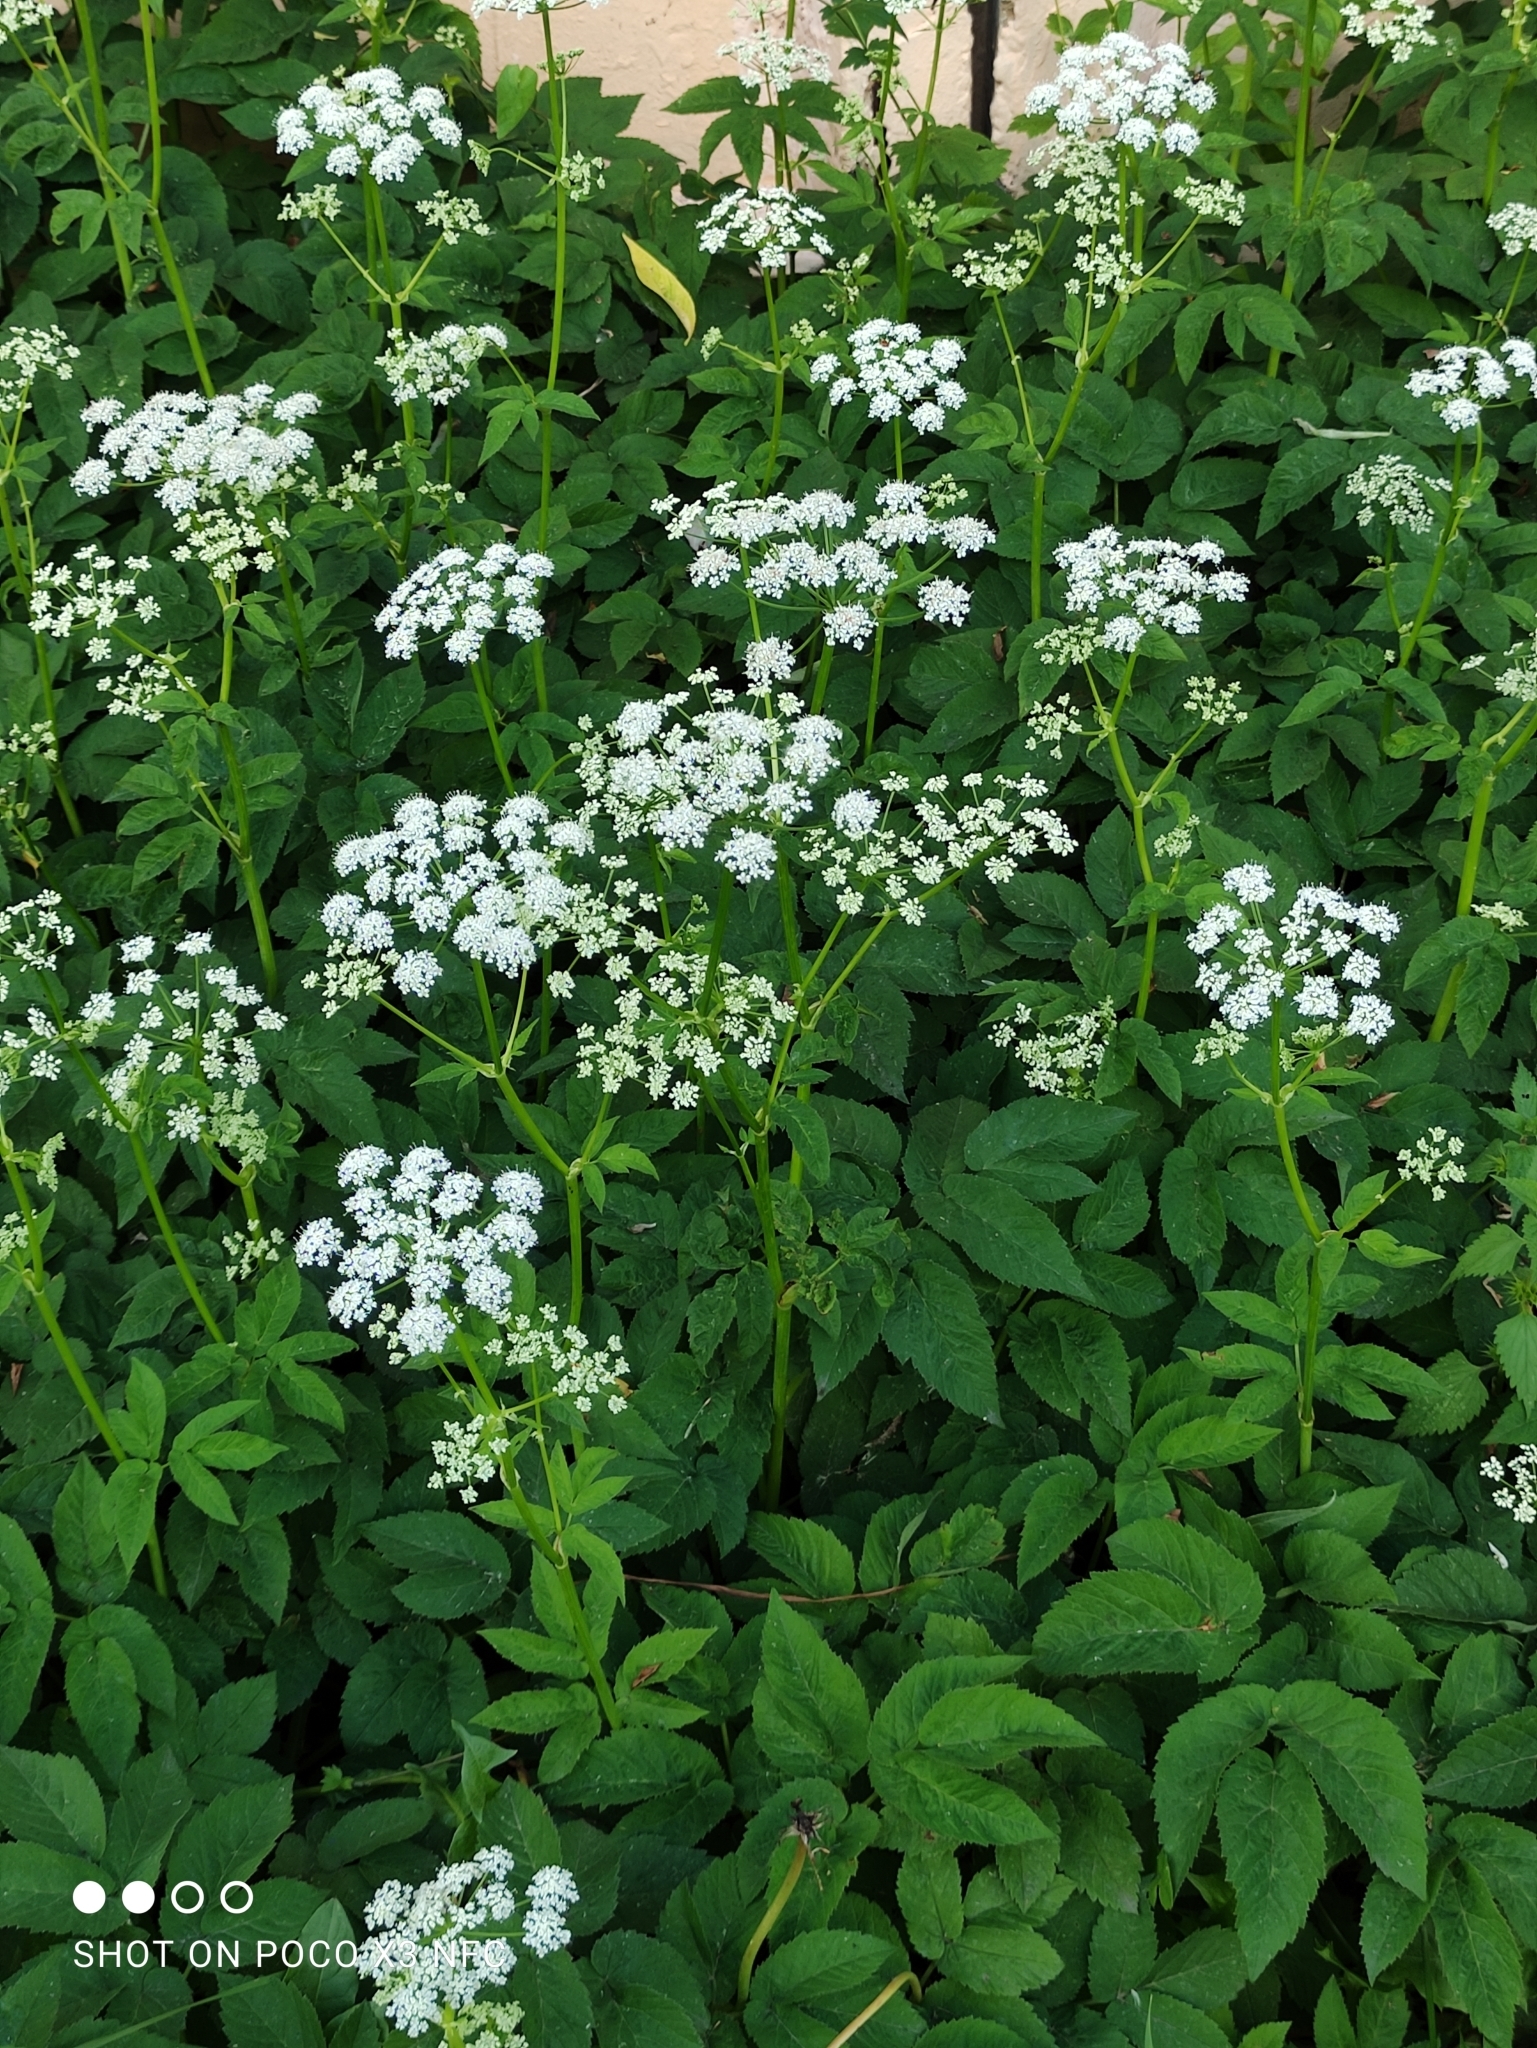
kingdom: Plantae
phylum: Tracheophyta
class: Magnoliopsida
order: Apiales
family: Apiaceae
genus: Aegopodium
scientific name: Aegopodium podagraria
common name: Ground-elder
